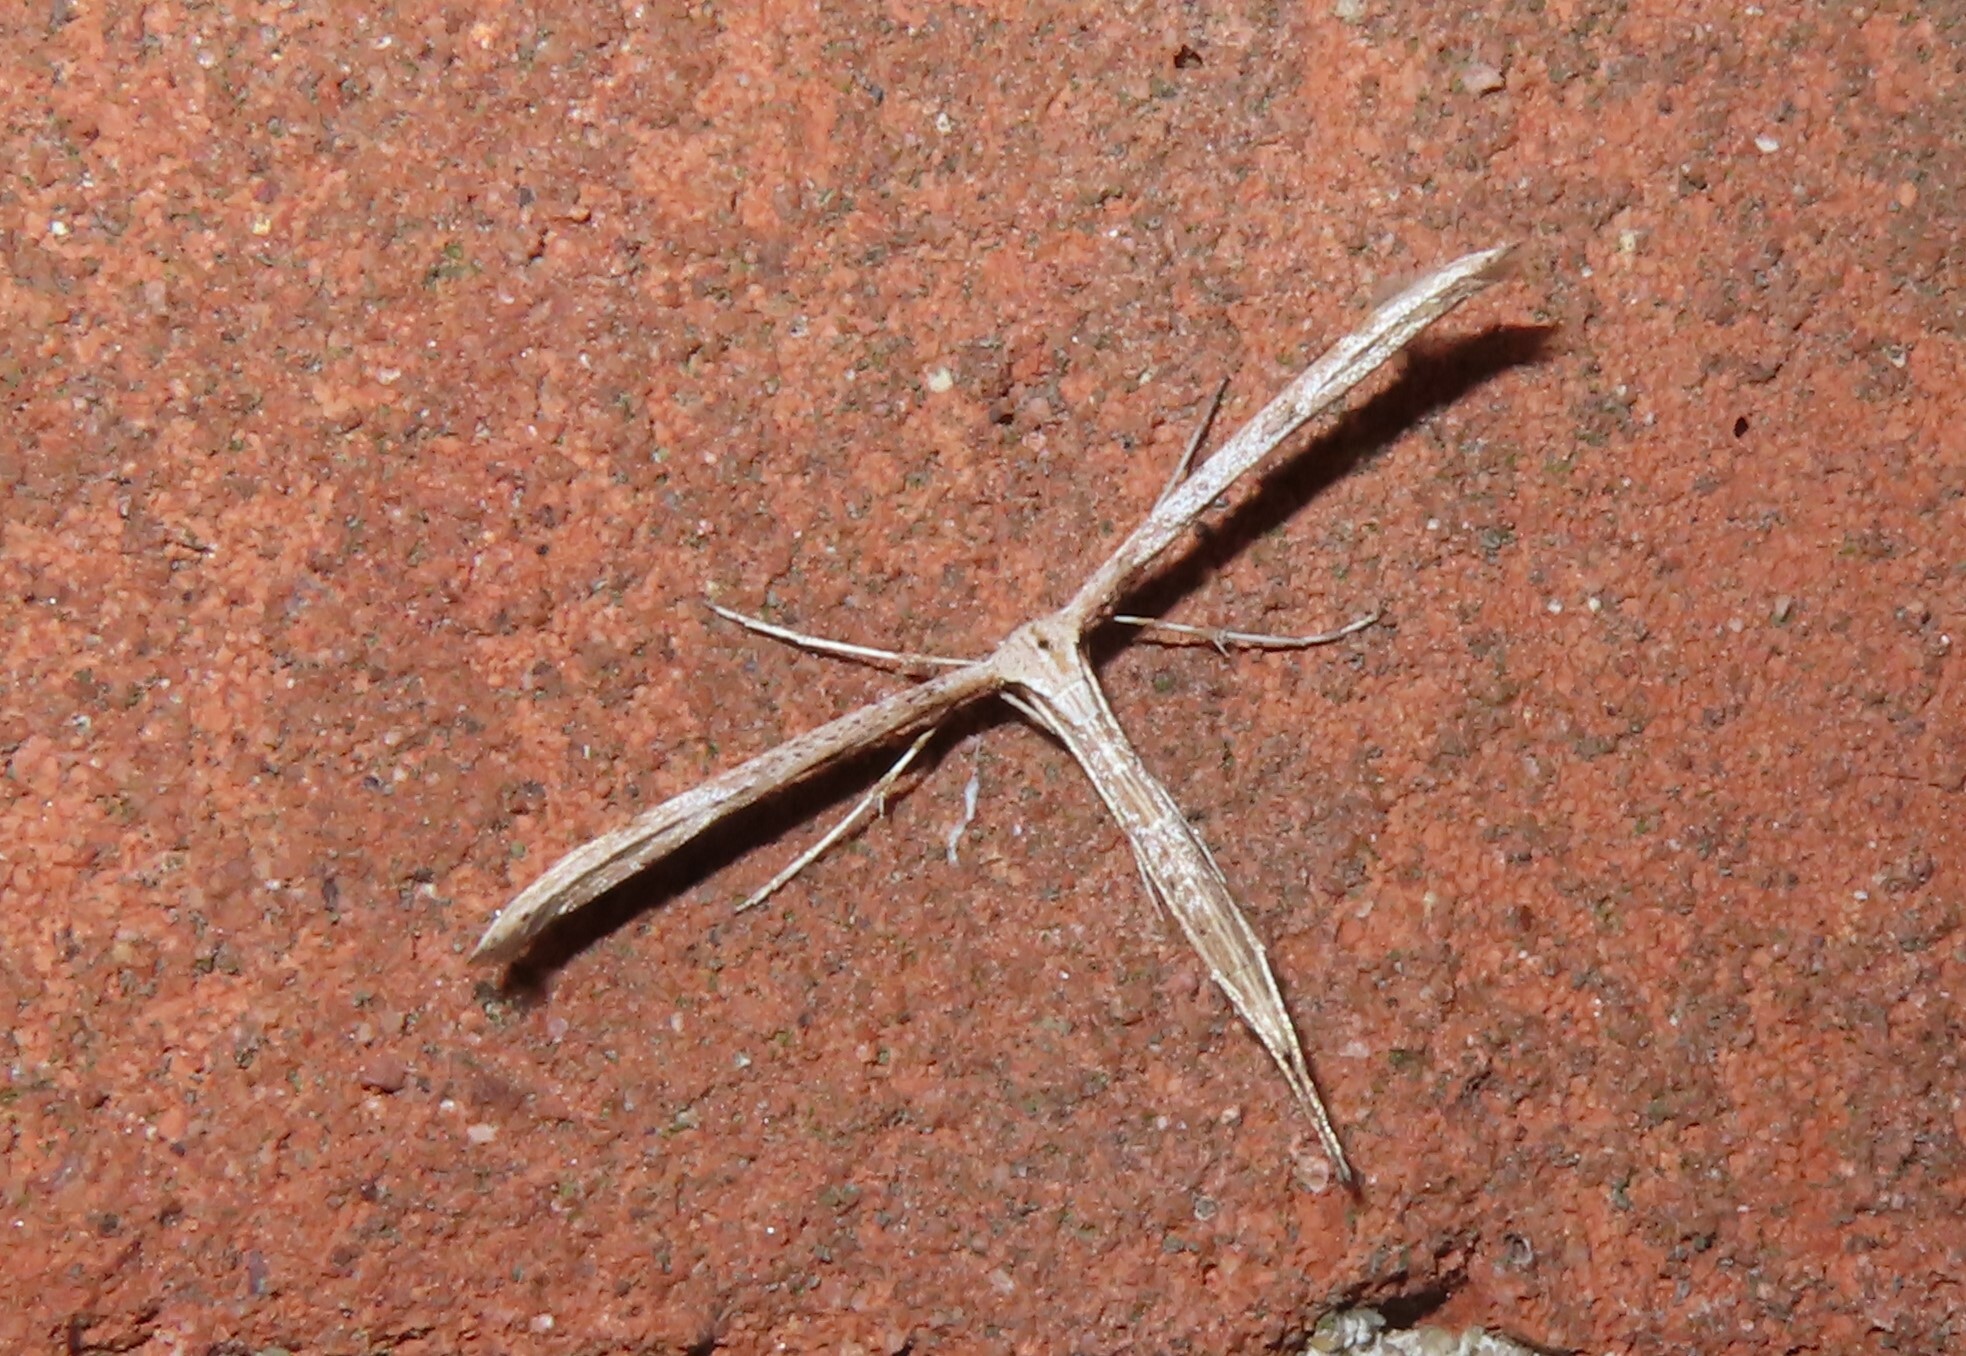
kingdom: Animalia
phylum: Arthropoda
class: Insecta
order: Lepidoptera
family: Pterophoridae
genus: Emmelina
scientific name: Emmelina monodactyla
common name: Common plume
